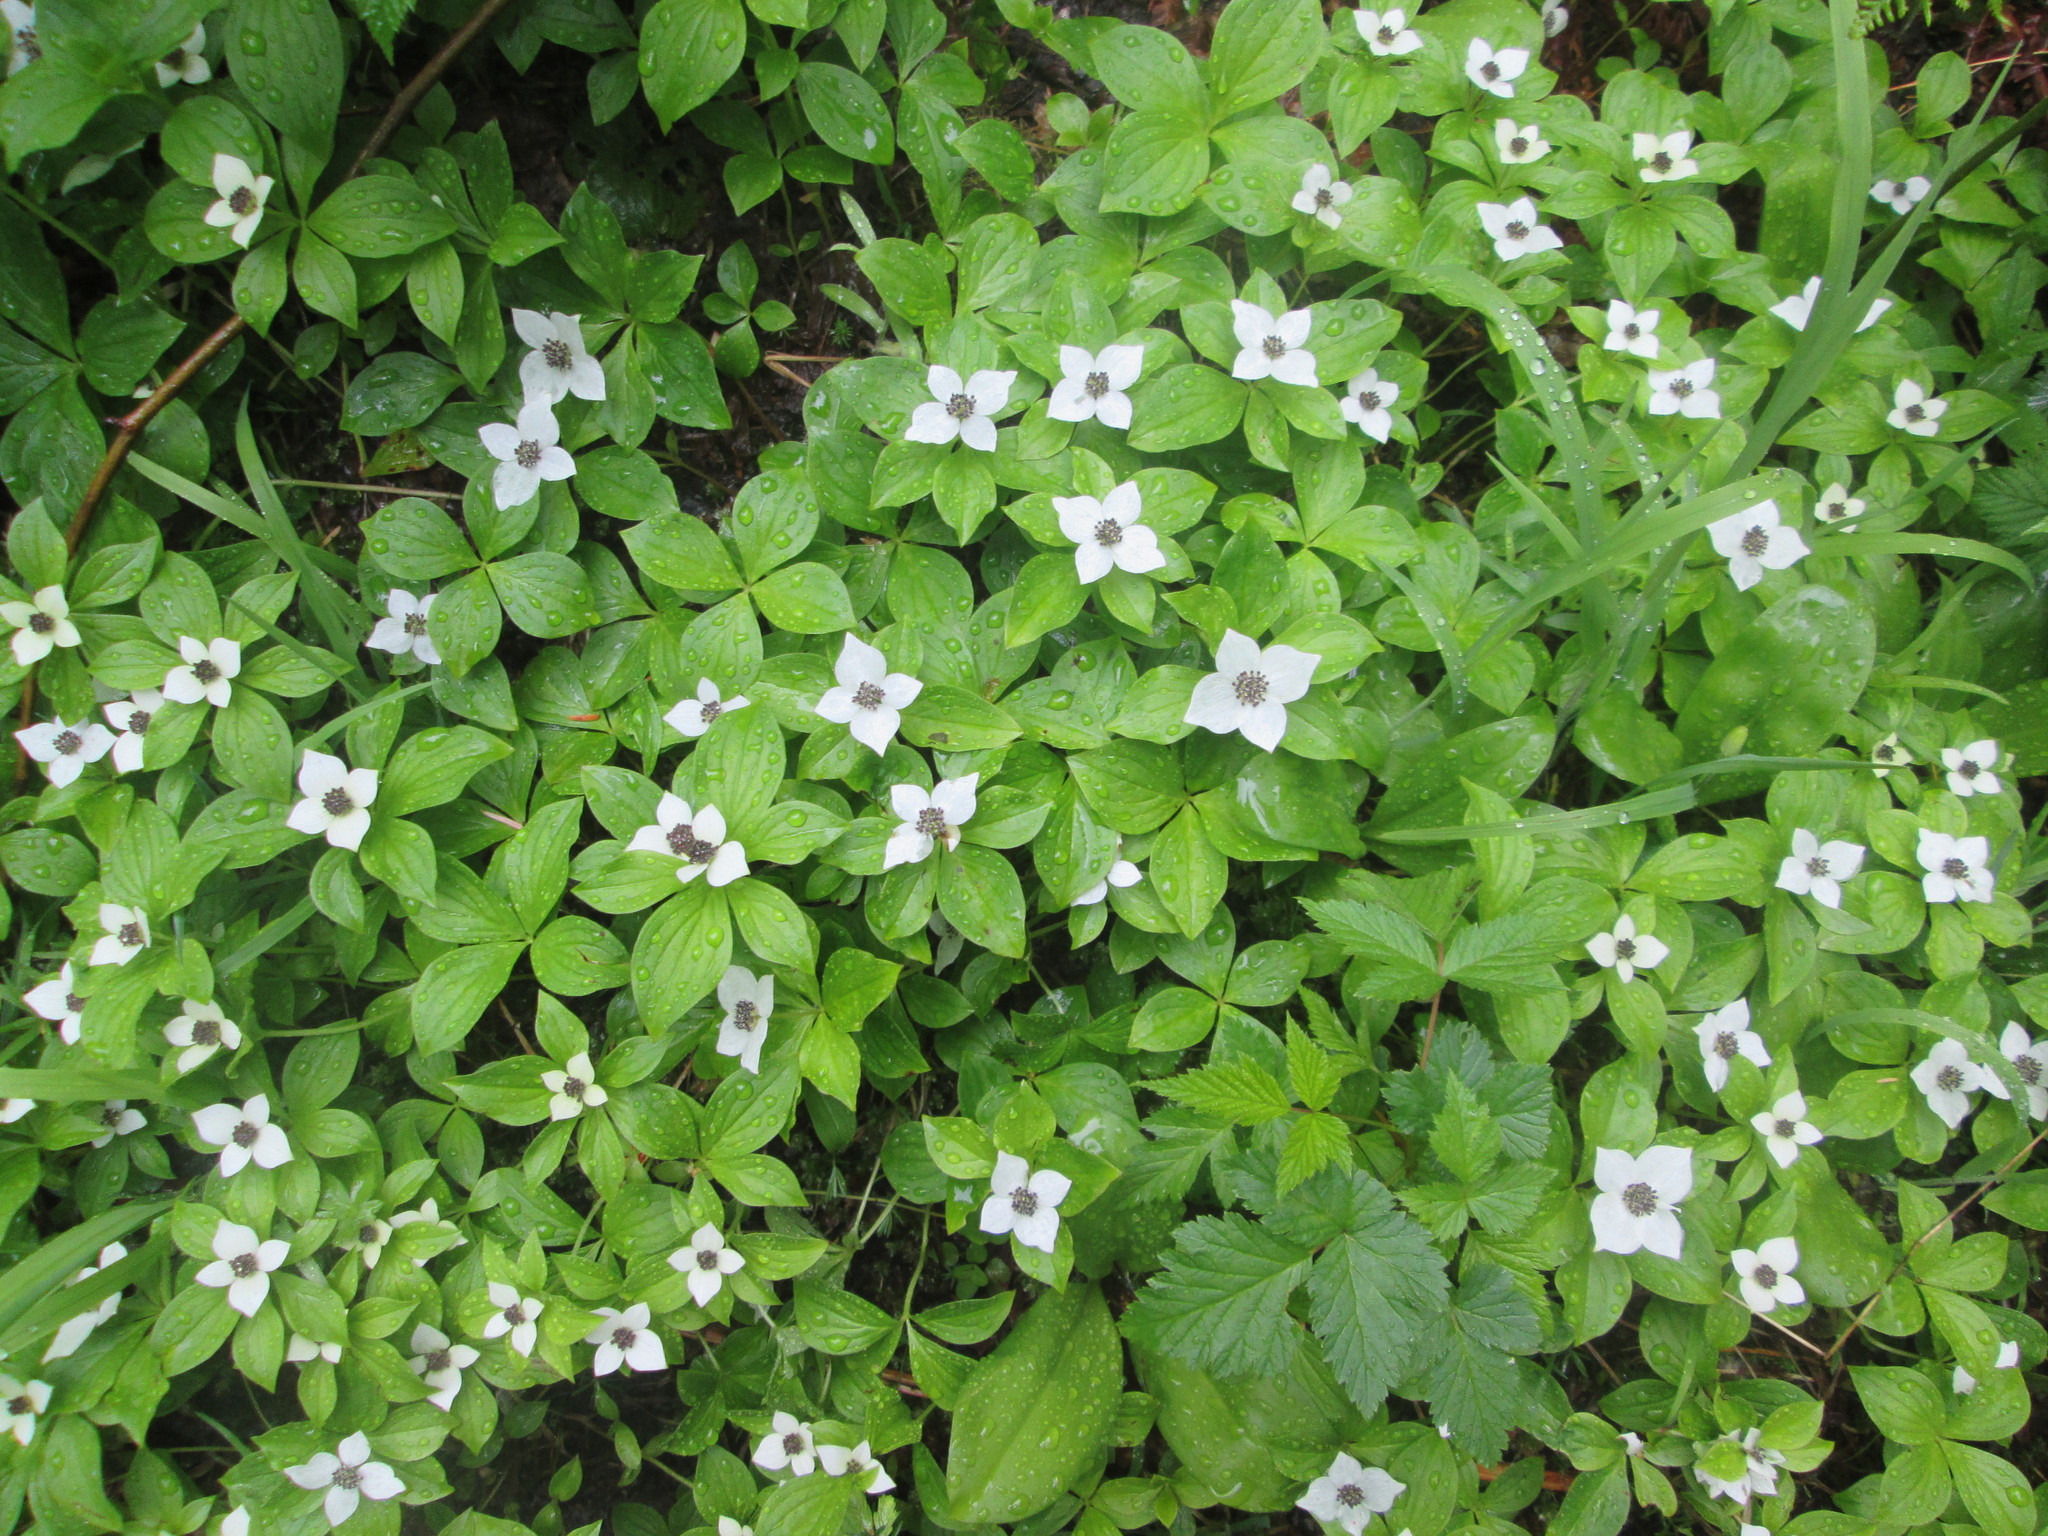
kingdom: Plantae
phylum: Tracheophyta
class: Magnoliopsida
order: Cornales
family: Cornaceae
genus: Cornus
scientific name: Cornus unalaschkensis
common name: Alaska bunchberry
